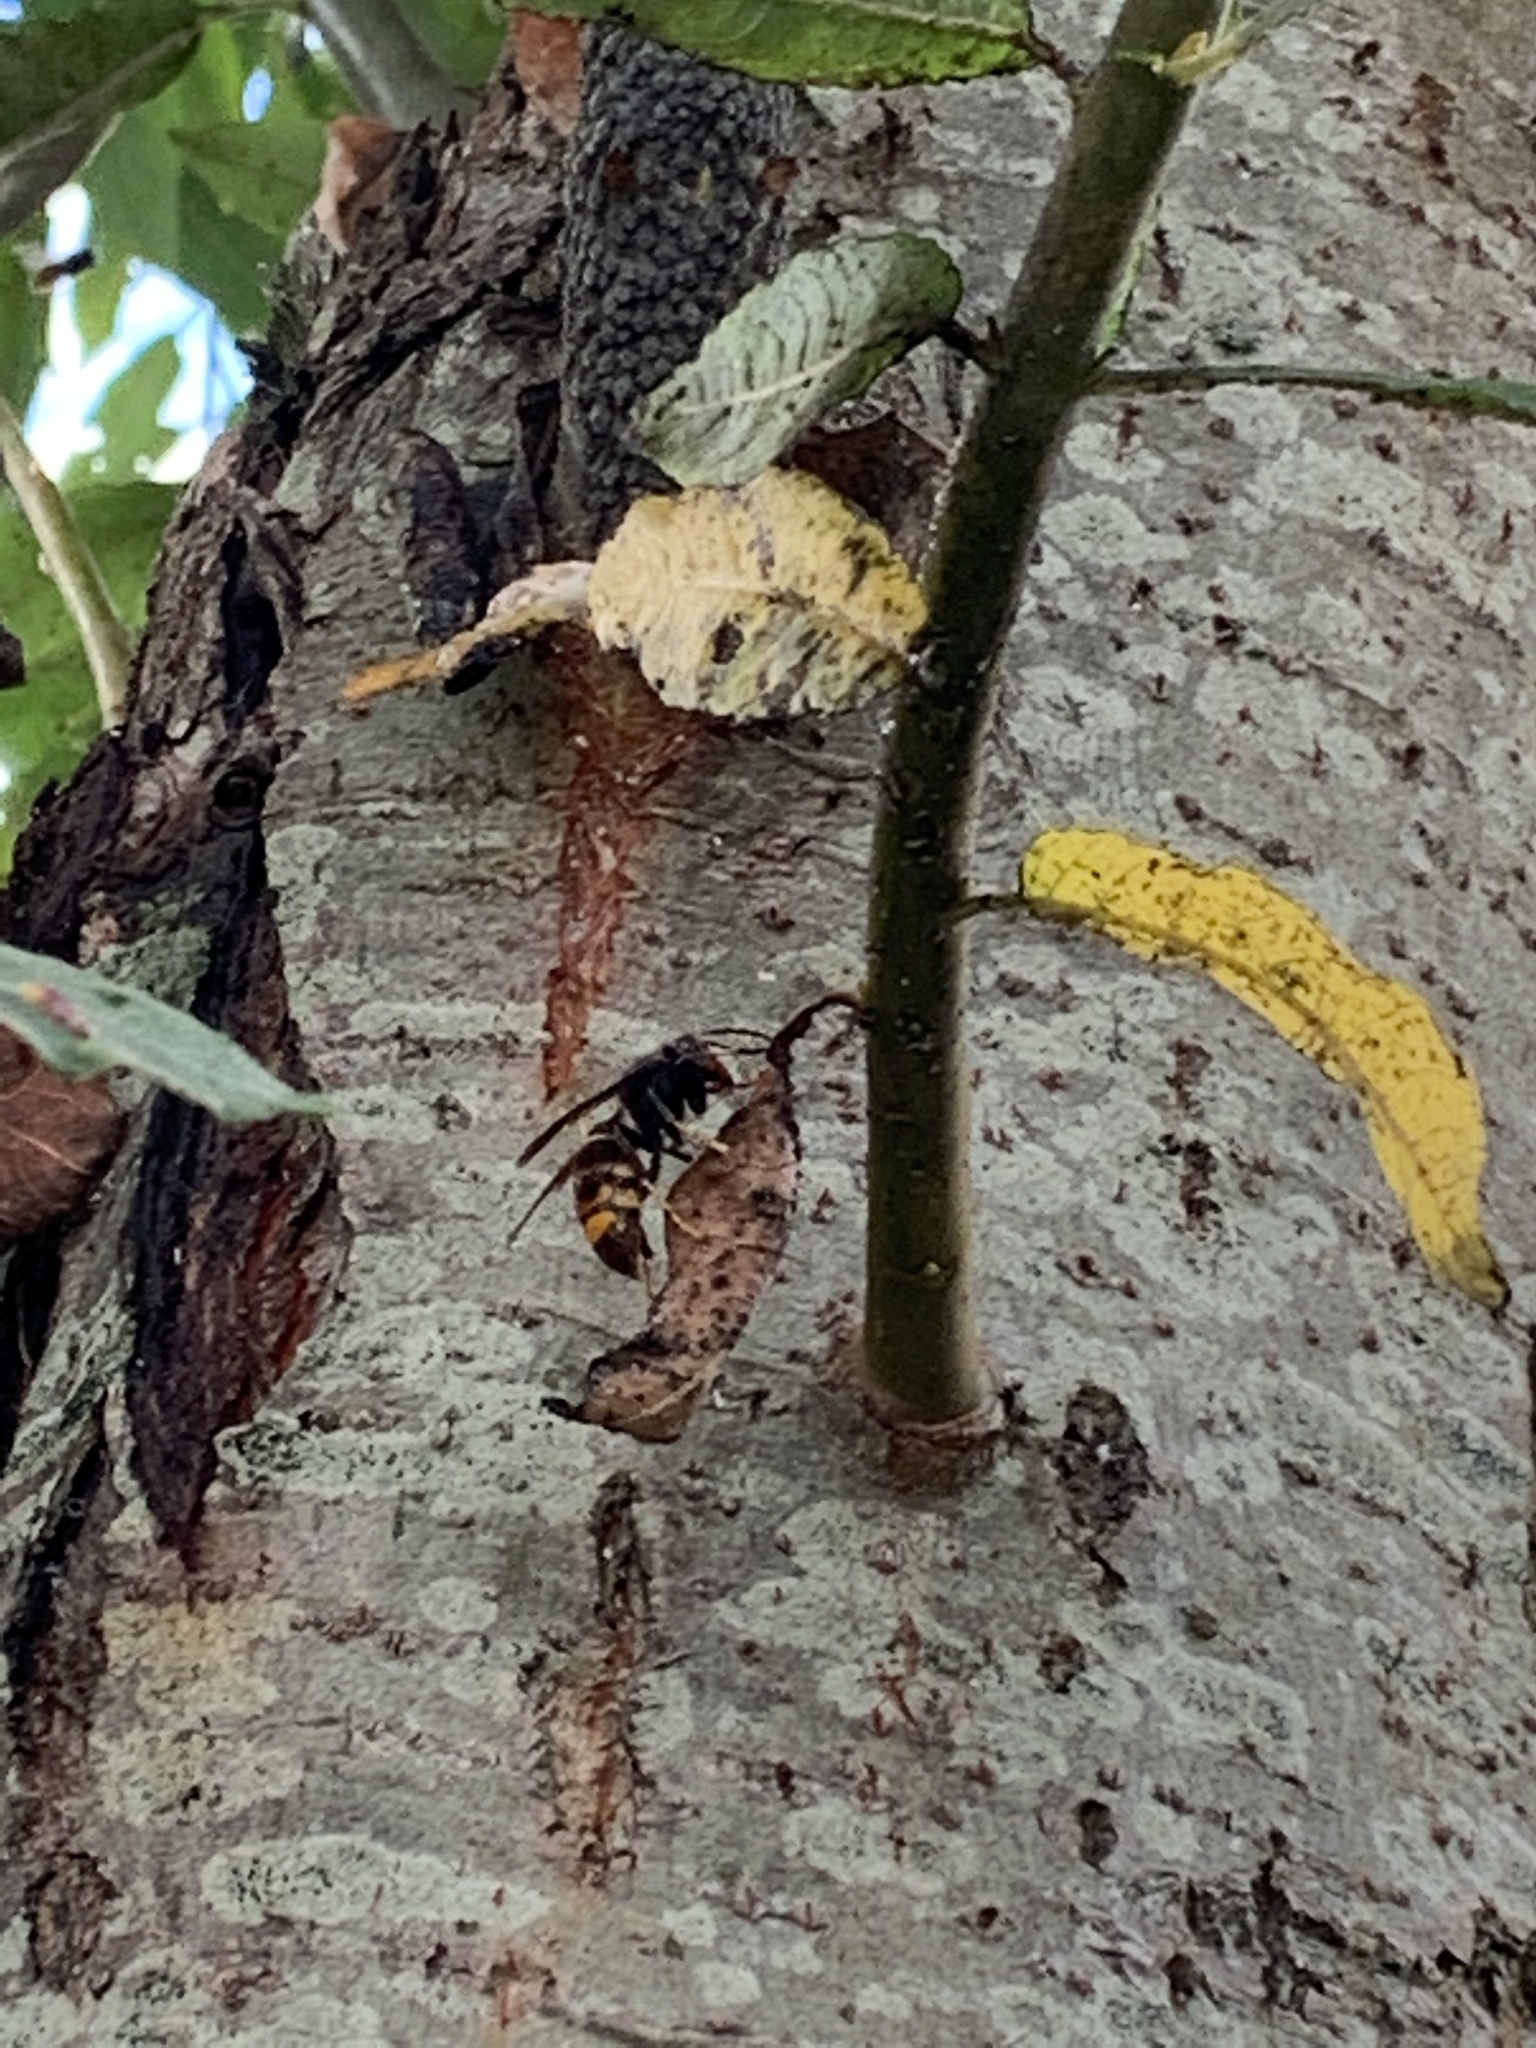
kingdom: Animalia
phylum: Arthropoda
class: Insecta
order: Hymenoptera
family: Vespidae
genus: Vespa
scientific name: Vespa velutina
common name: Asian hornet
